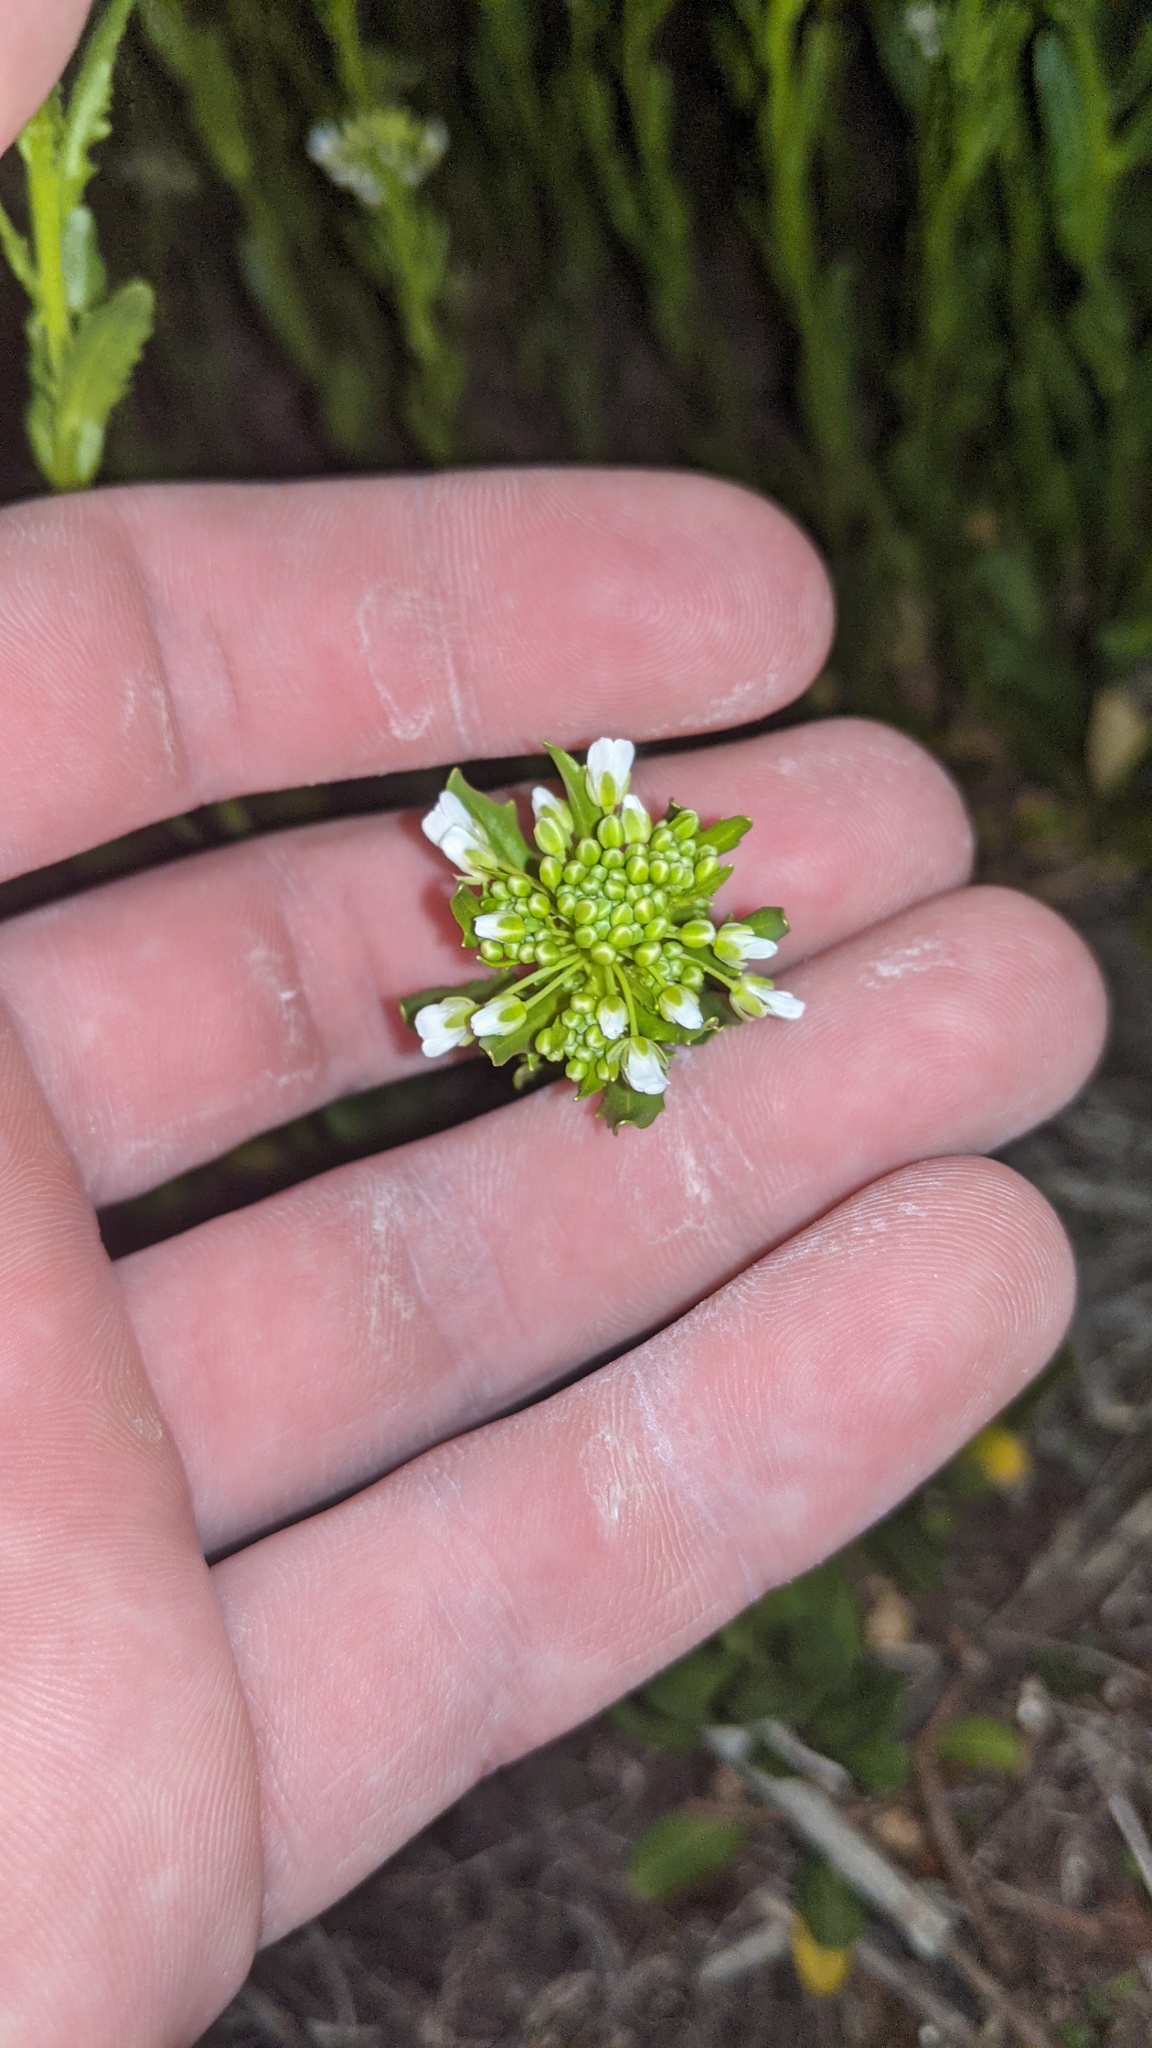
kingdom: Plantae
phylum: Tracheophyta
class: Magnoliopsida
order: Brassicales
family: Brassicaceae
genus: Thlaspi
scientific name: Thlaspi arvense
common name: Field pennycress
